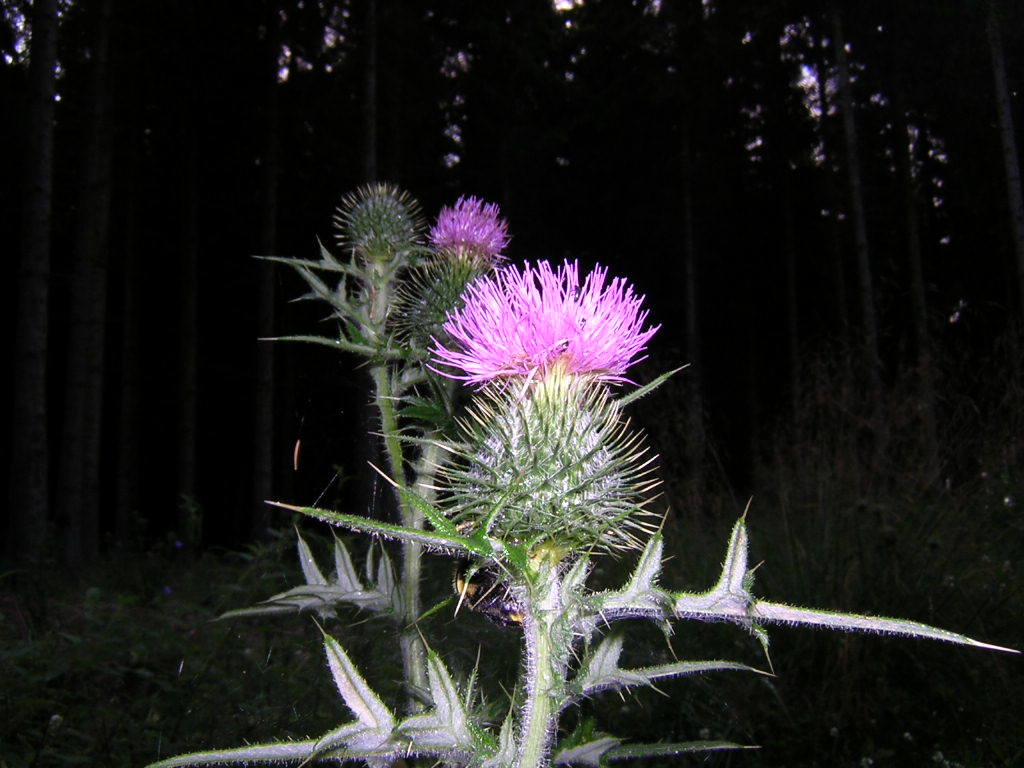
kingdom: Plantae
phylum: Tracheophyta
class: Magnoliopsida
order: Asterales
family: Asteraceae
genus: Cirsium
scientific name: Cirsium vulgare
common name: Bull thistle
